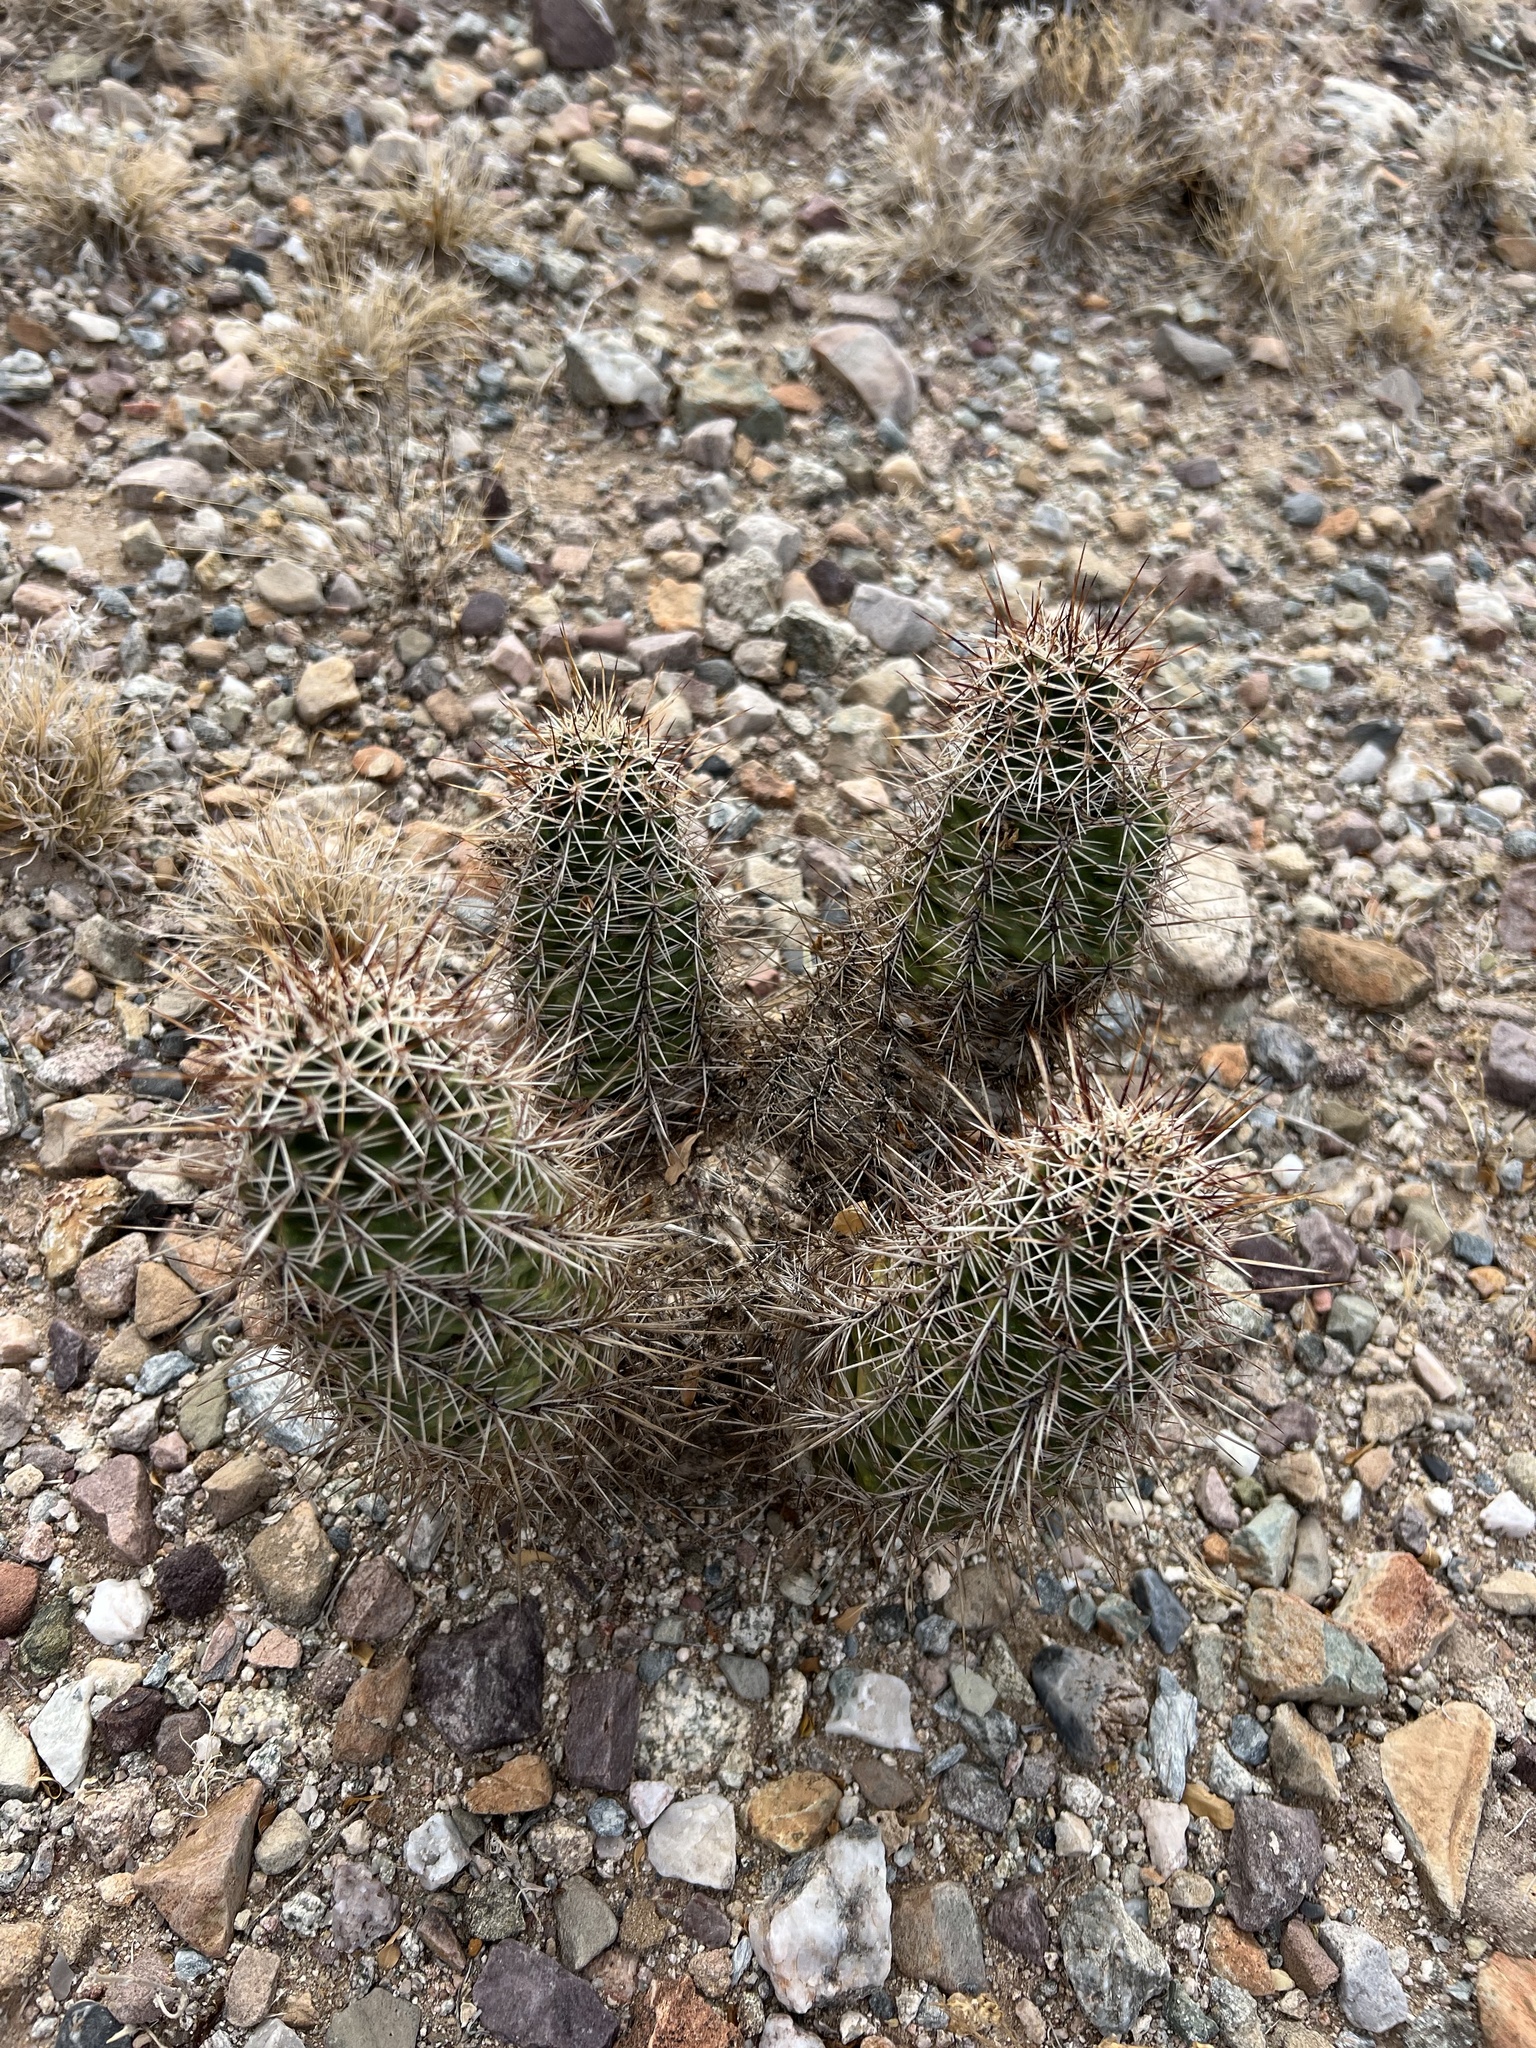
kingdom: Plantae
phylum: Tracheophyta
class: Magnoliopsida
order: Caryophyllales
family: Cactaceae
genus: Echinocereus
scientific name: Echinocereus fasciculatus
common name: Bundle hedgehog
